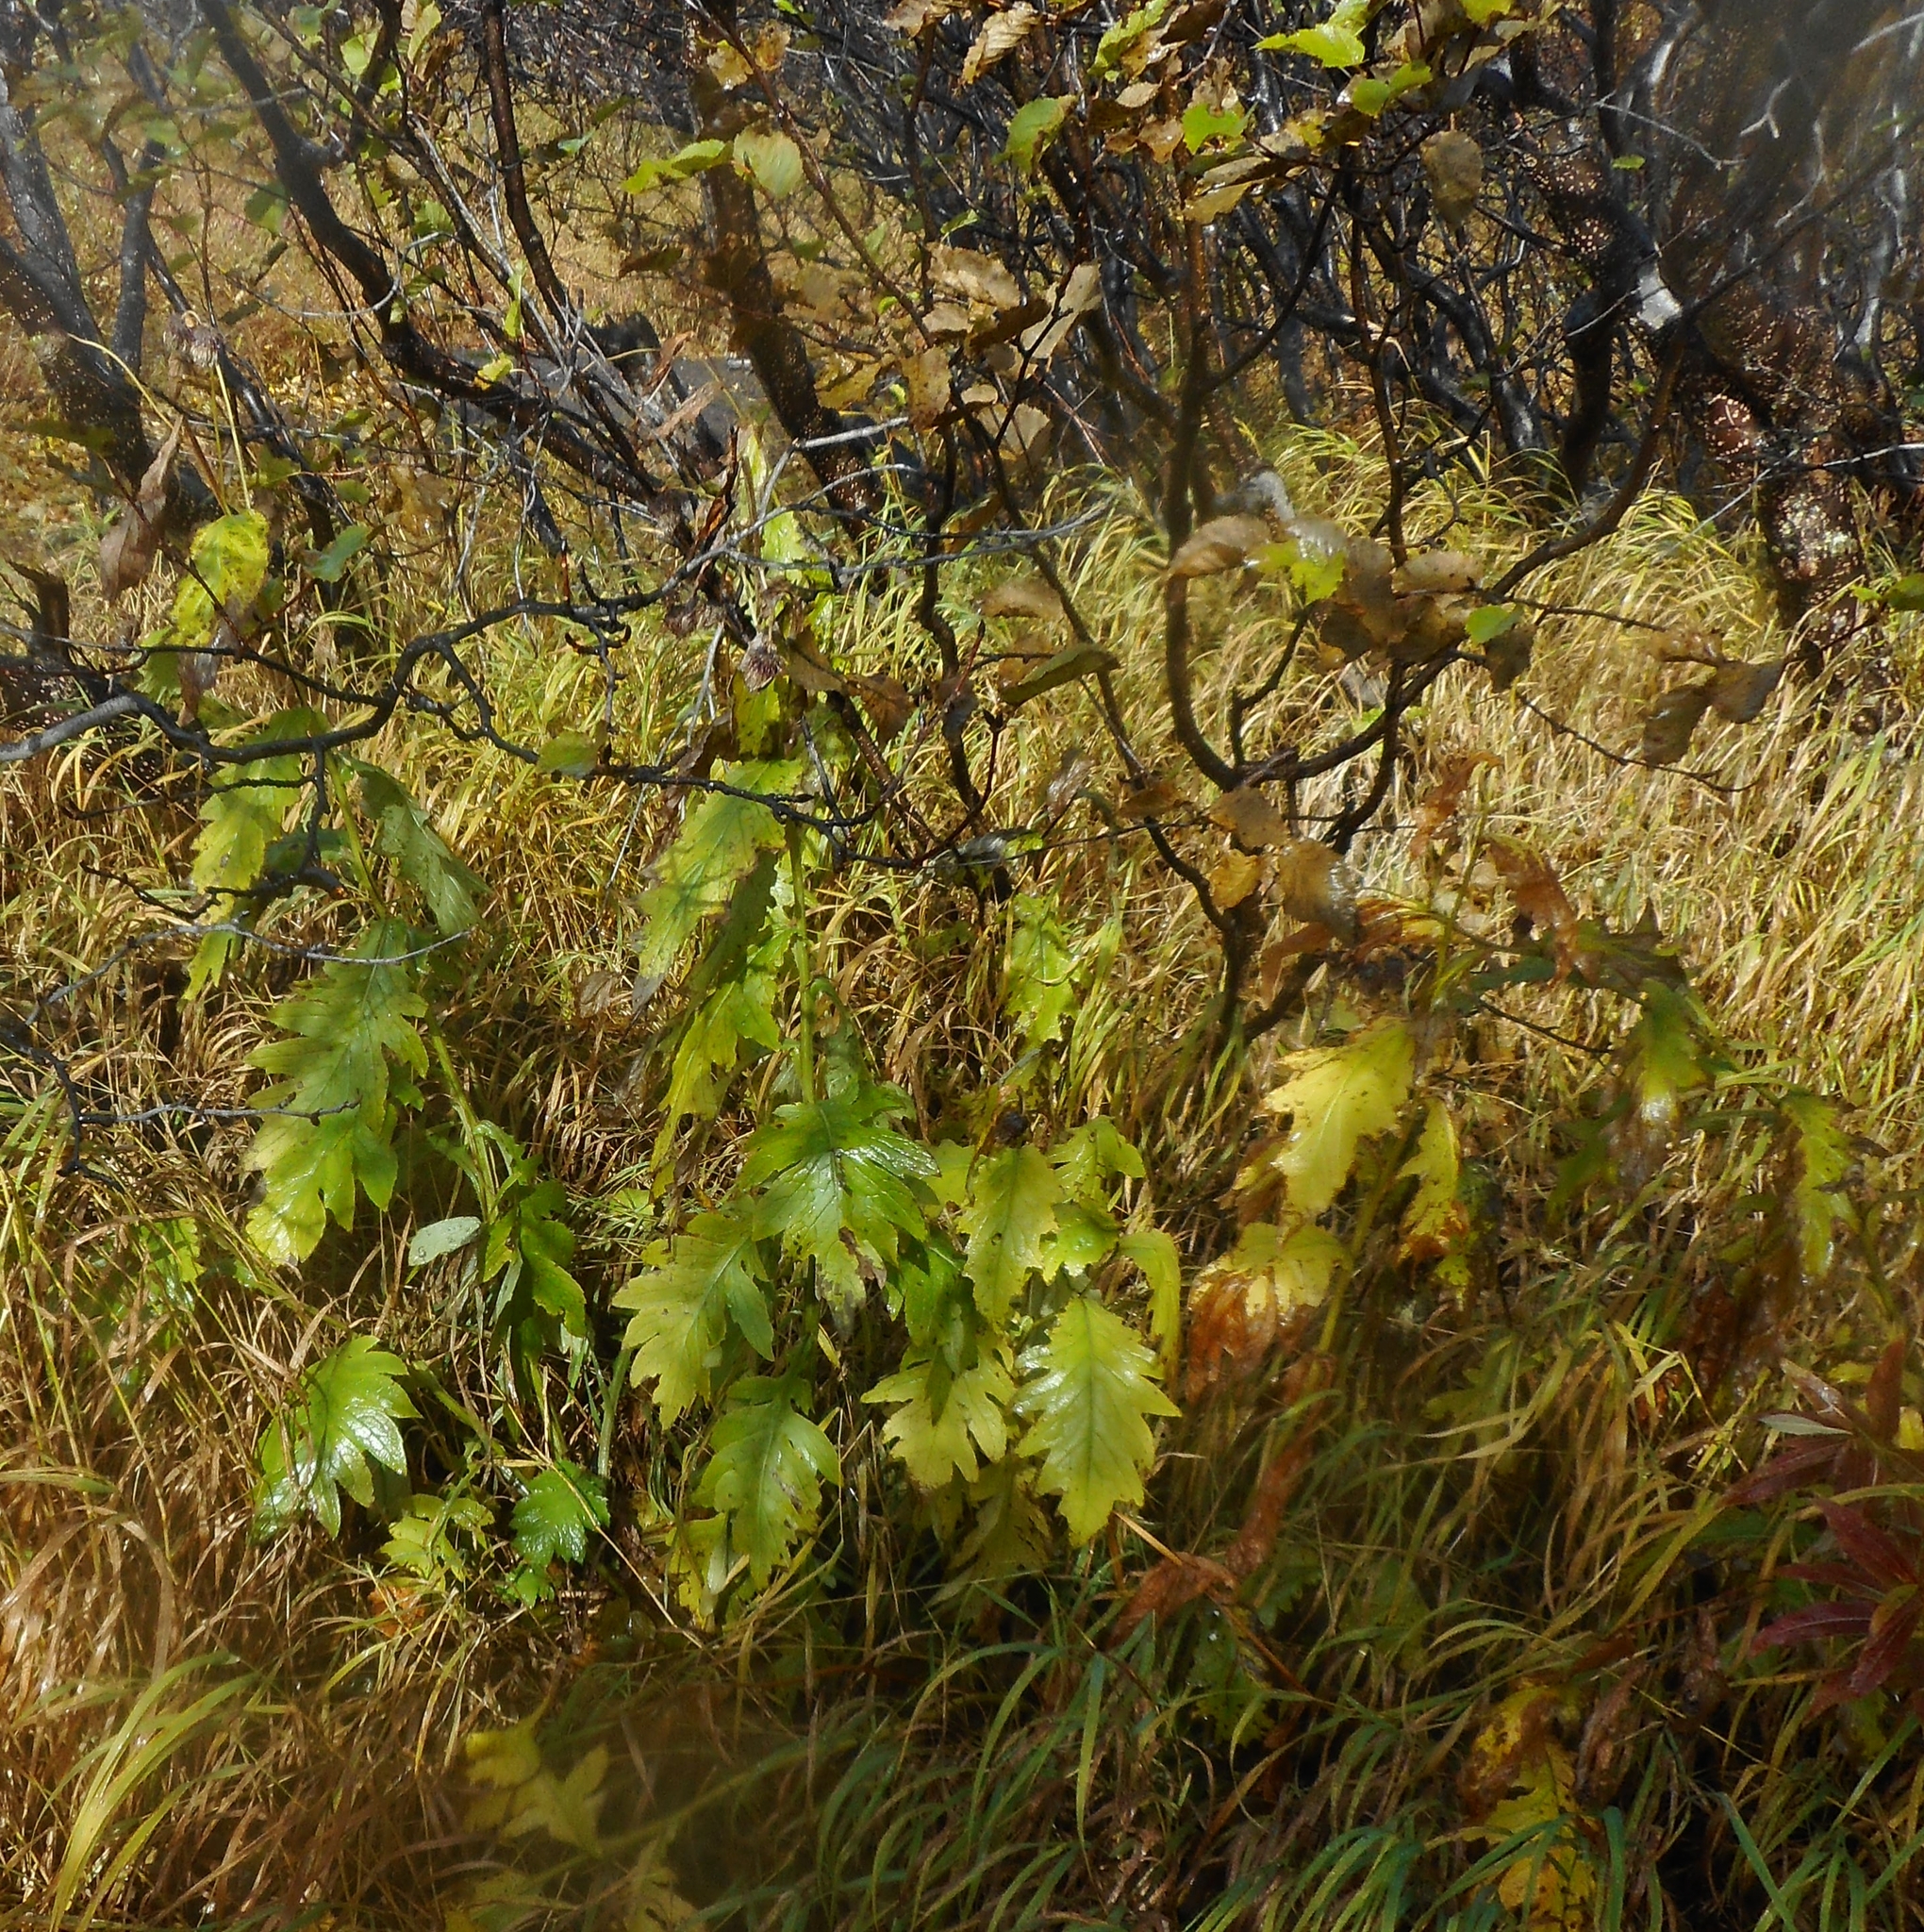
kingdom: Plantae
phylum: Tracheophyta
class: Magnoliopsida
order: Asterales
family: Asteraceae
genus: Cirsium
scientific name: Cirsium kamtschaticum
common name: Kamchatka thistle
